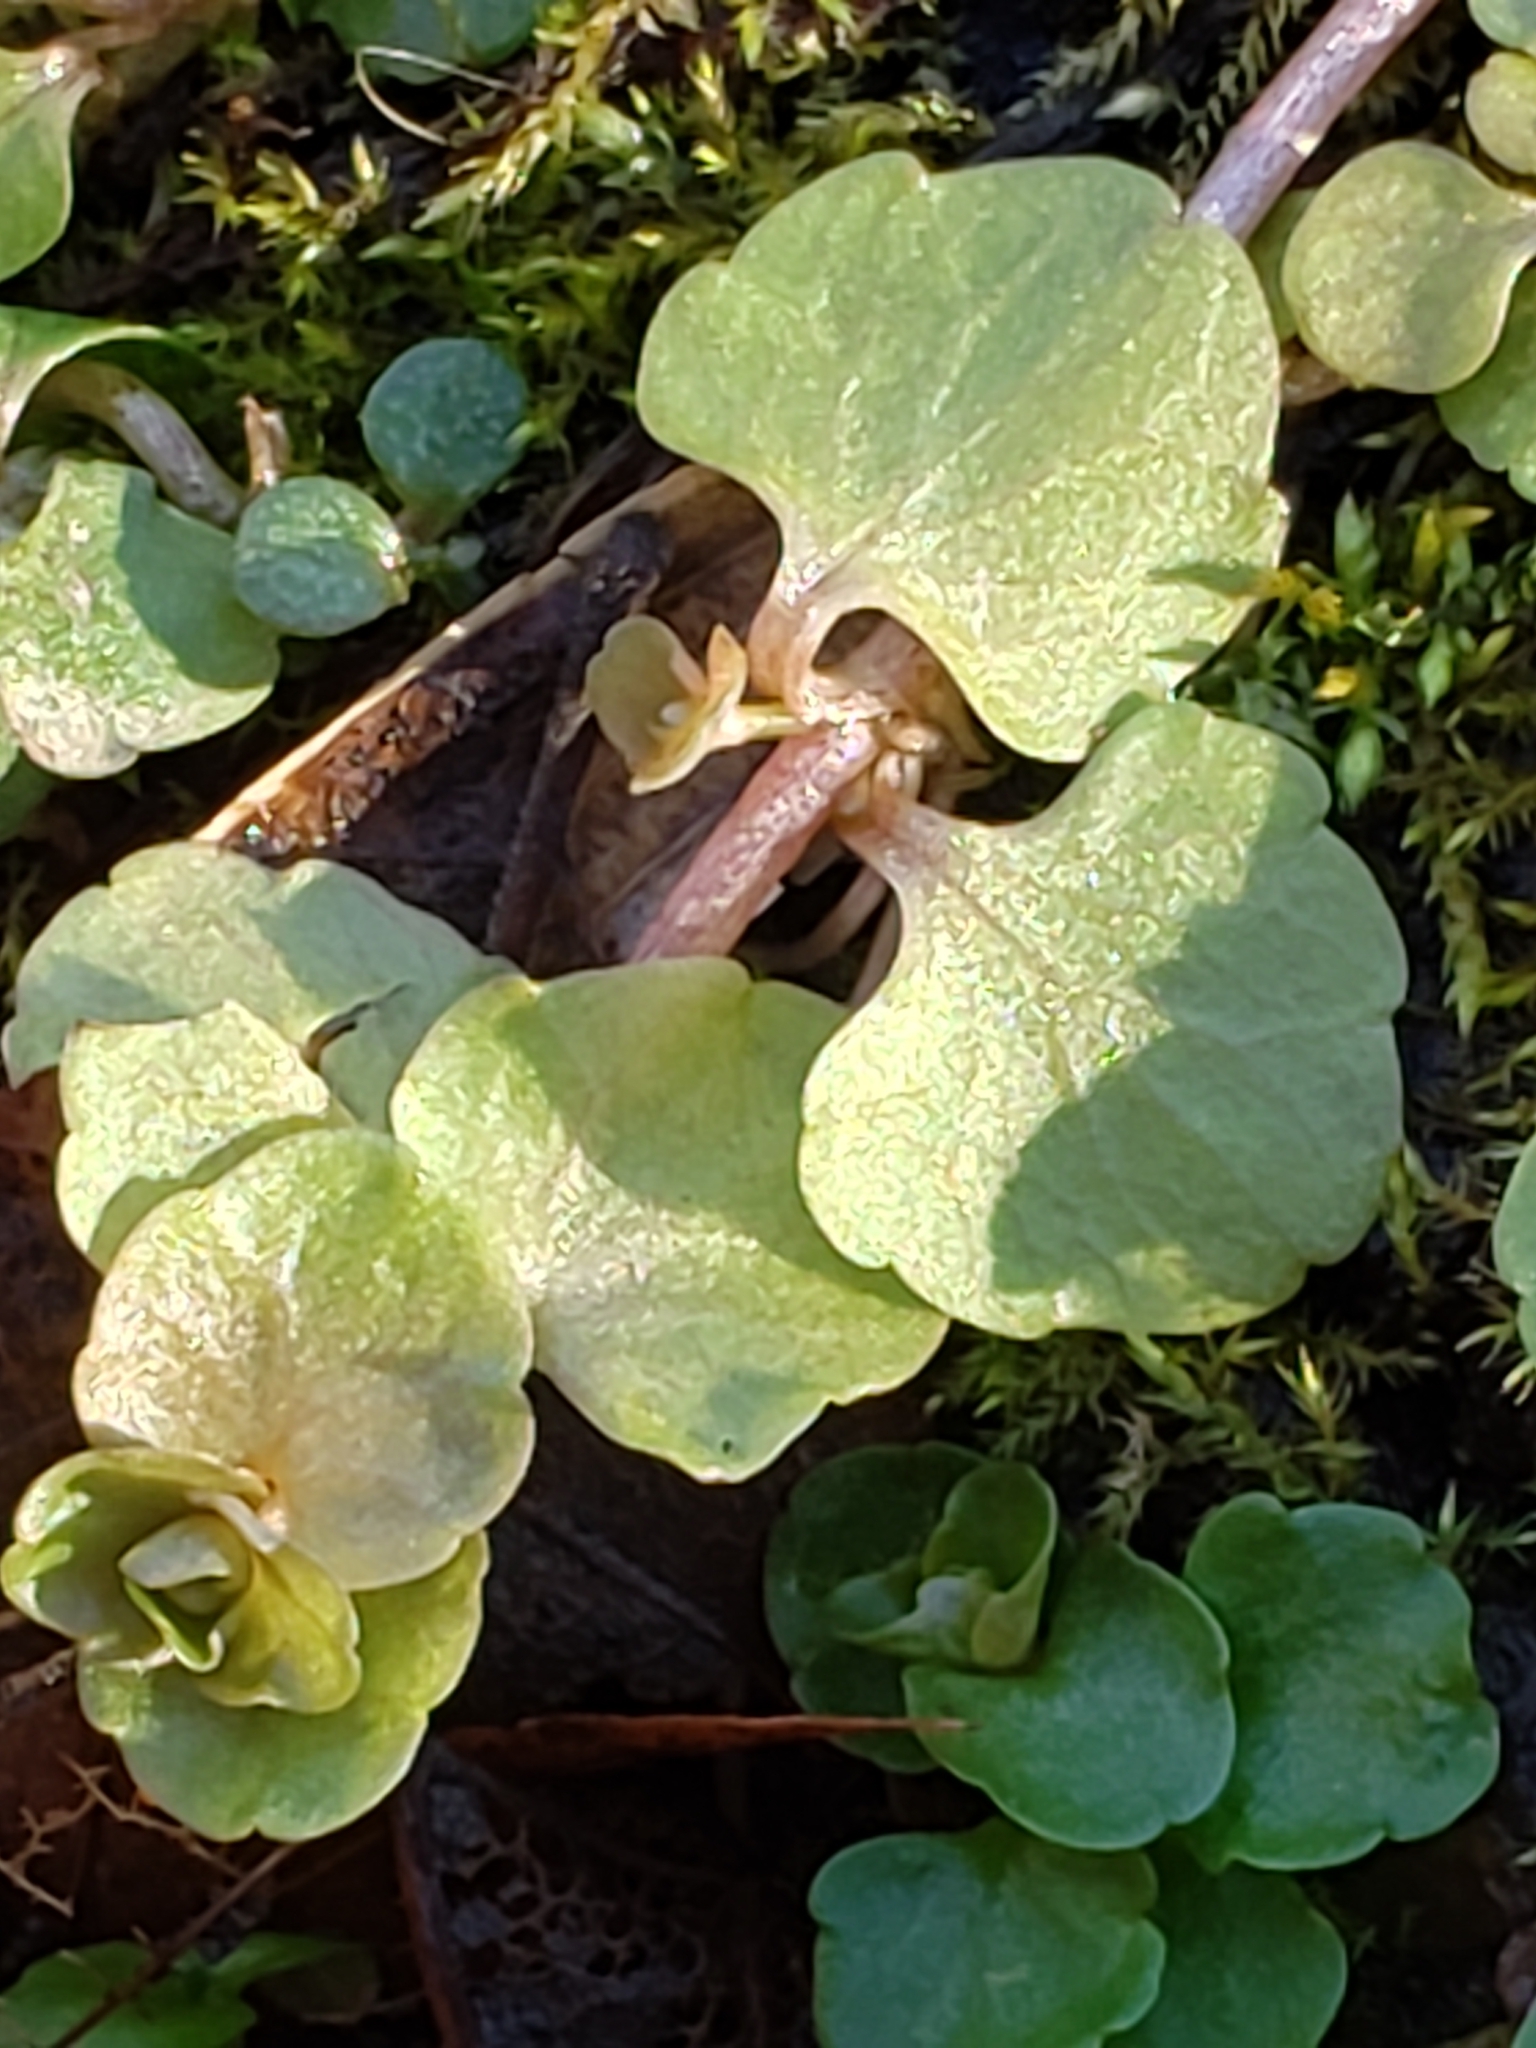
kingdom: Plantae
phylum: Tracheophyta
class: Magnoliopsida
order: Saxifragales
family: Saxifragaceae
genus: Chrysosplenium
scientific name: Chrysosplenium americanum
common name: American golden-saxifrage
